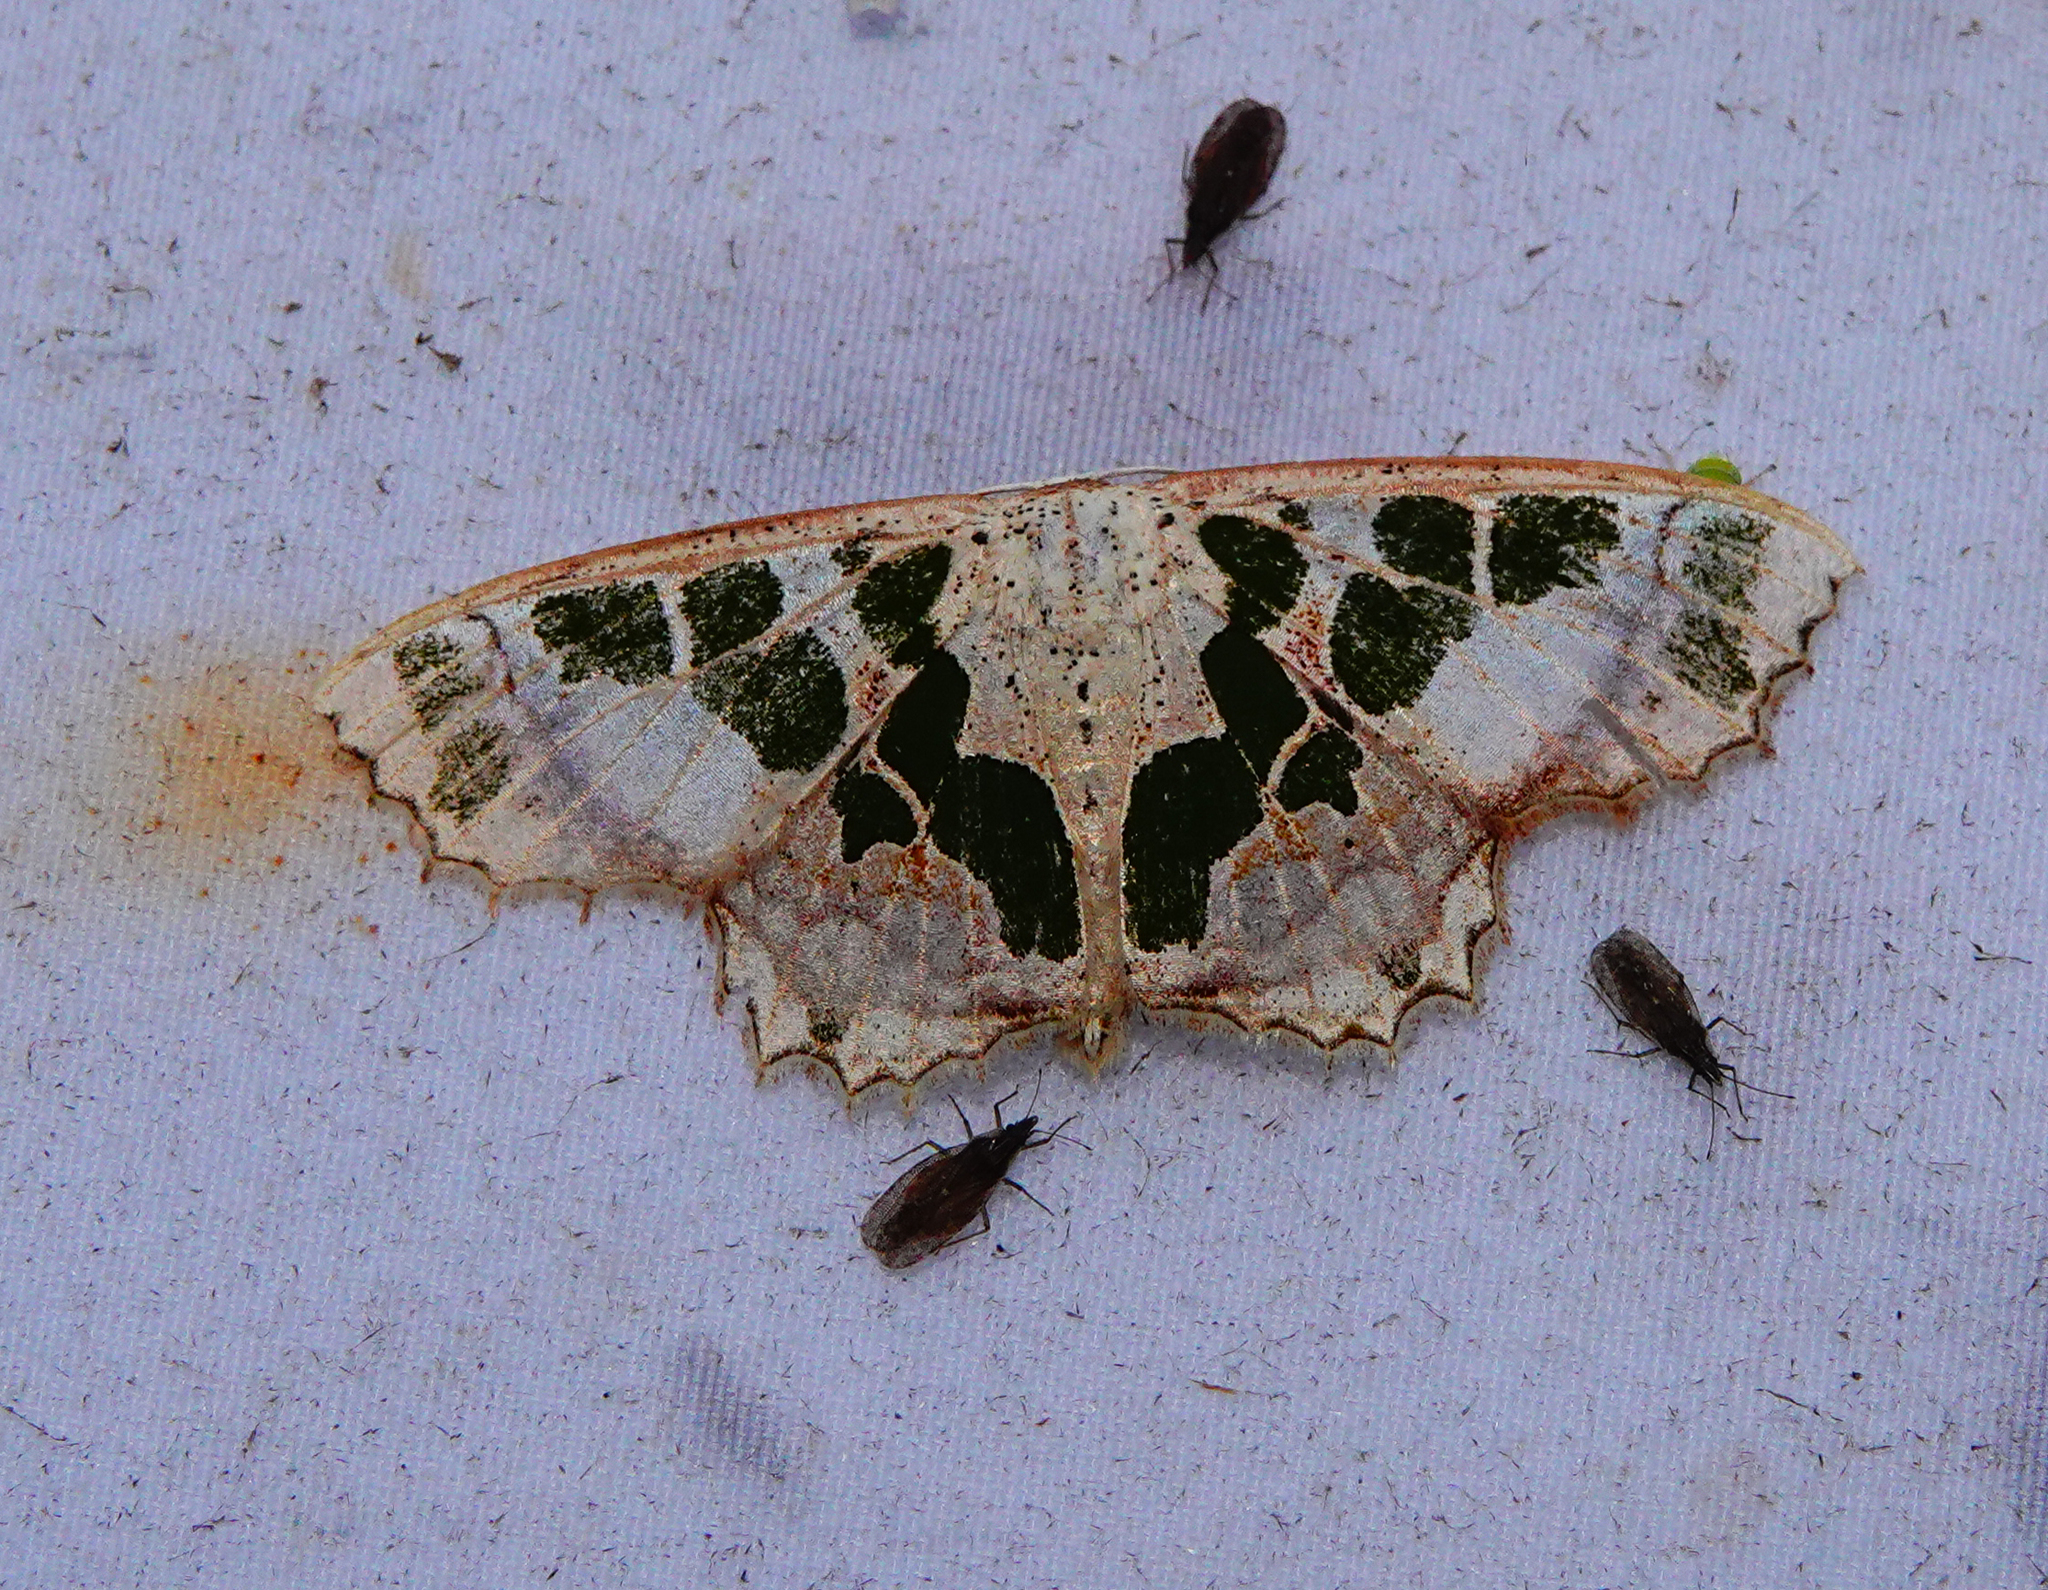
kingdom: Animalia
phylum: Arthropoda
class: Insecta
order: Lepidoptera
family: Geometridae
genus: Scopula
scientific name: Scopula divisaria
